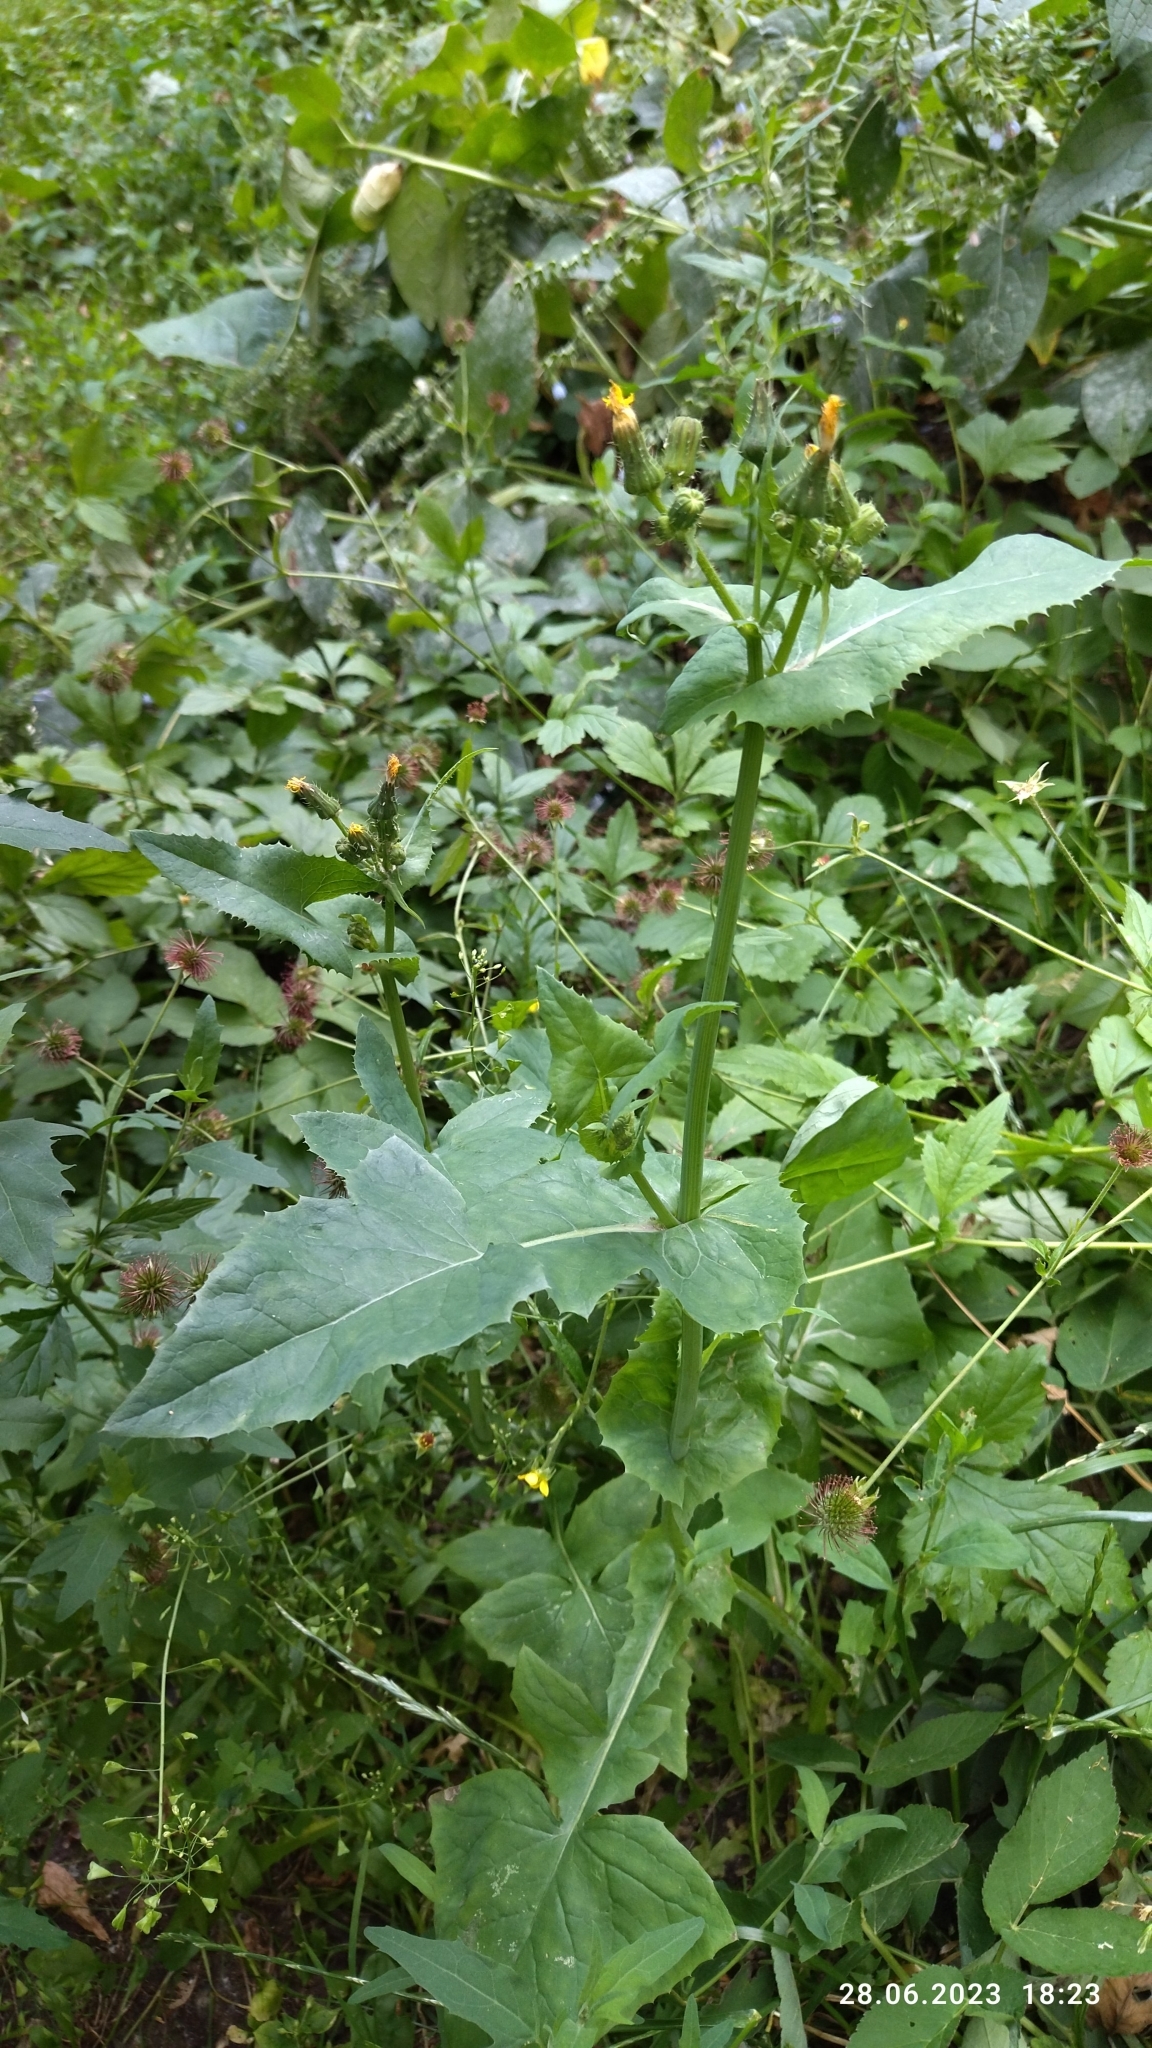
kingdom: Plantae
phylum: Tracheophyta
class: Magnoliopsida
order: Asterales
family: Asteraceae
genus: Sonchus
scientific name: Sonchus oleraceus
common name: Common sowthistle
